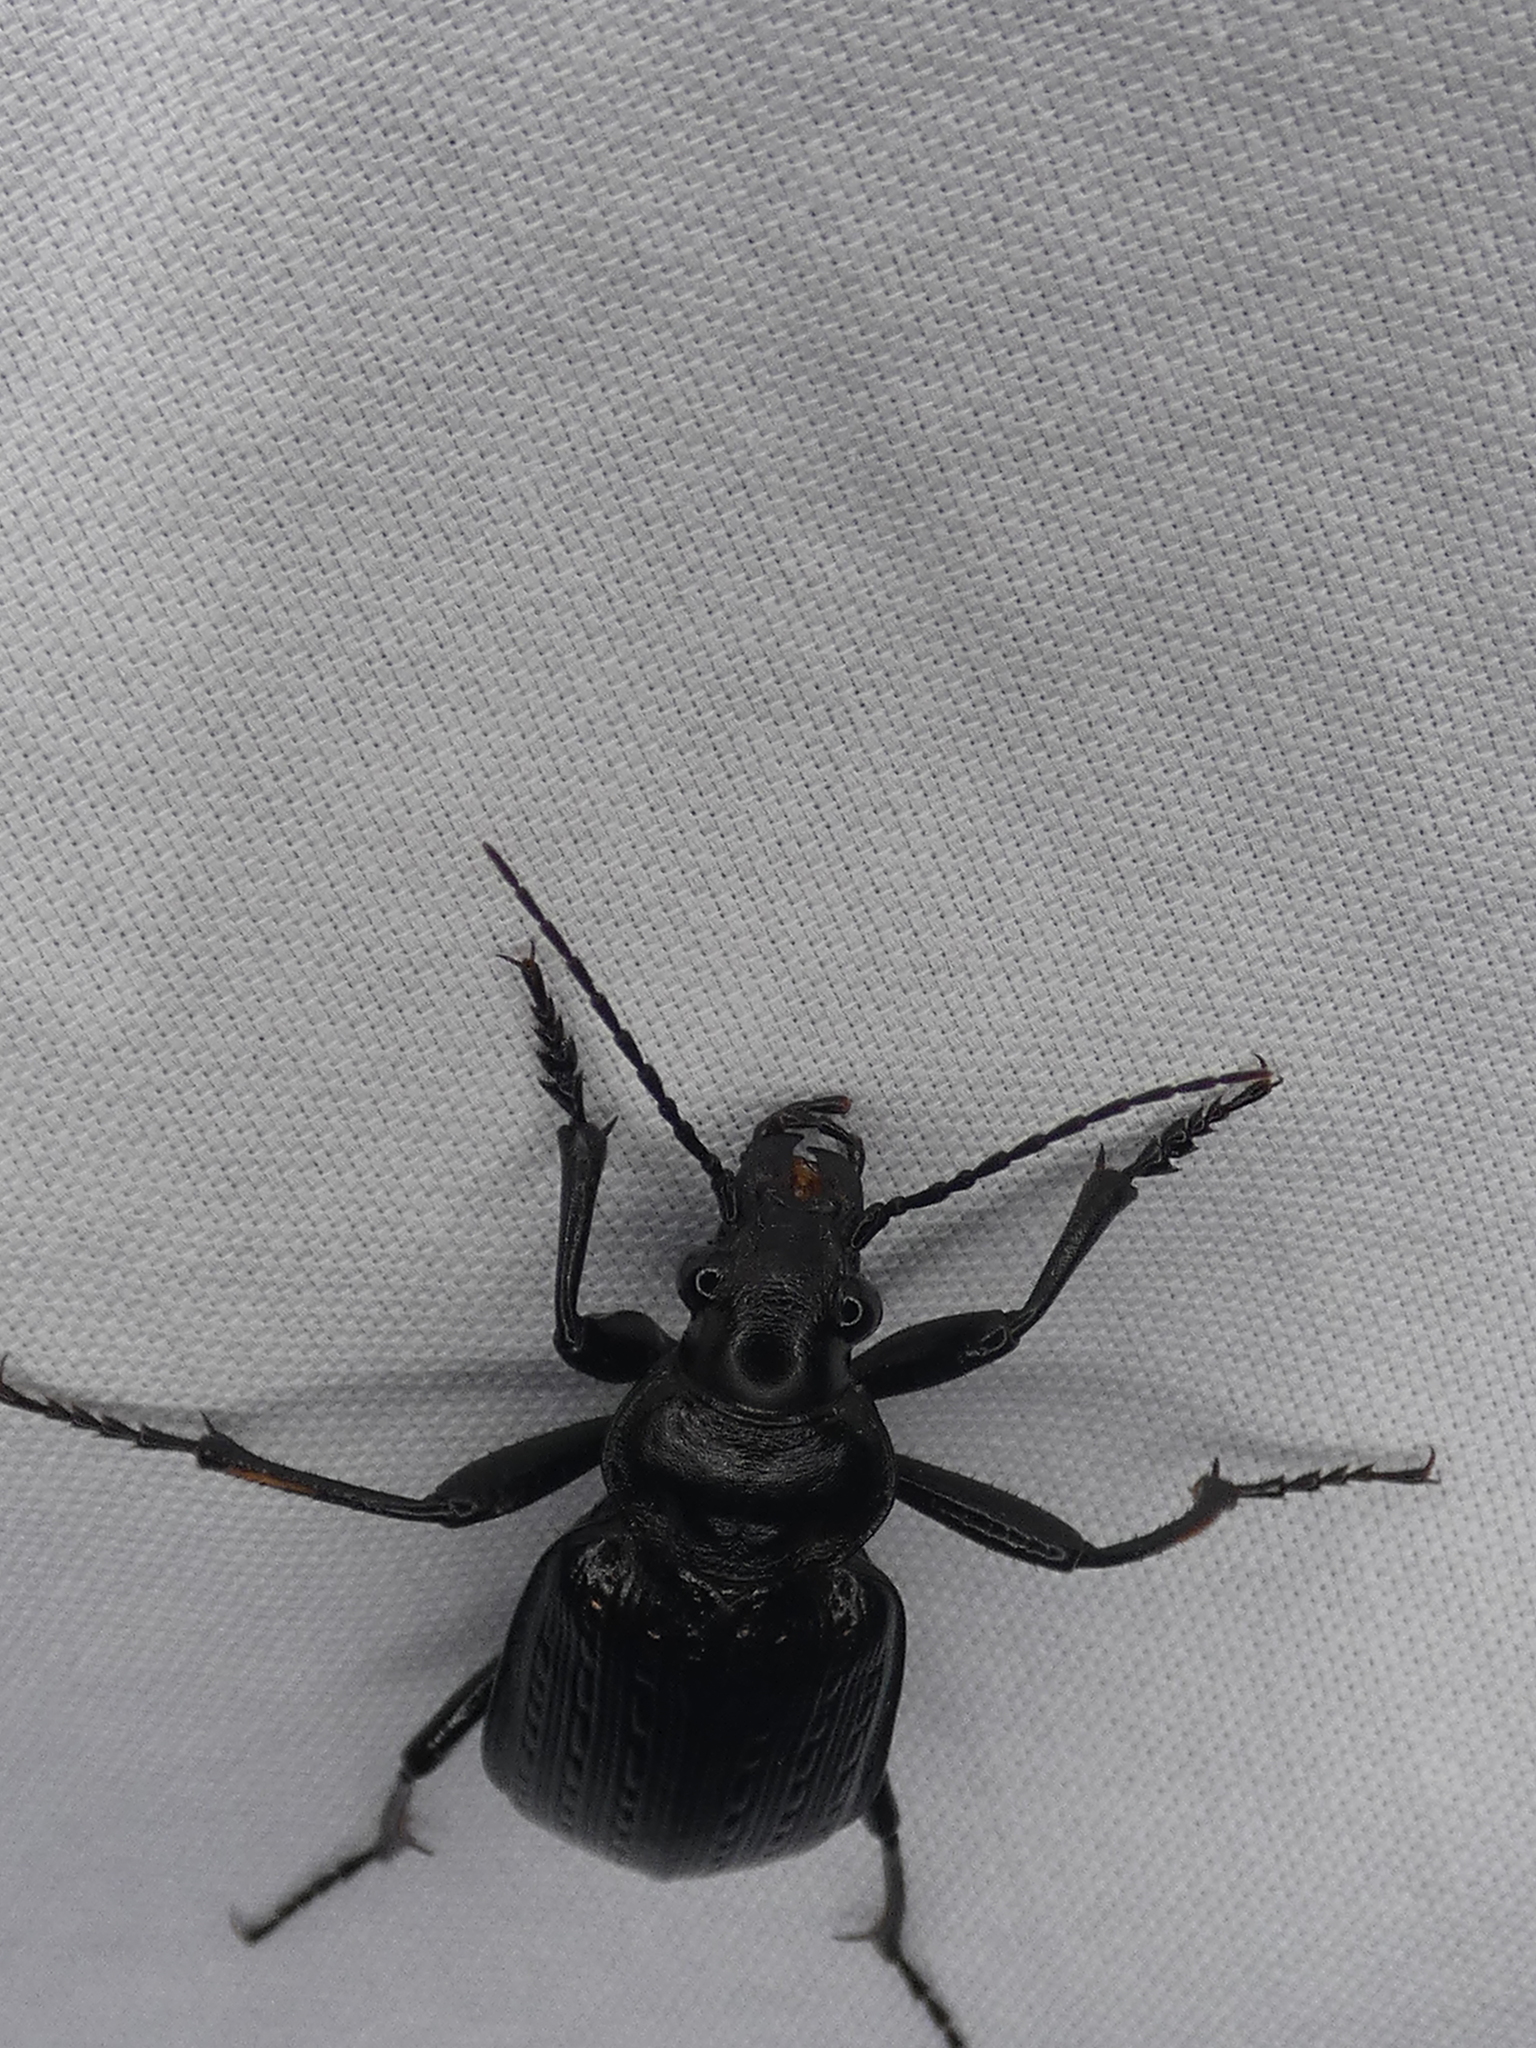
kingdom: Animalia
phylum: Arthropoda
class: Insecta
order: Coleoptera
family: Carabidae
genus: Calosoma
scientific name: Calosoma sayi
